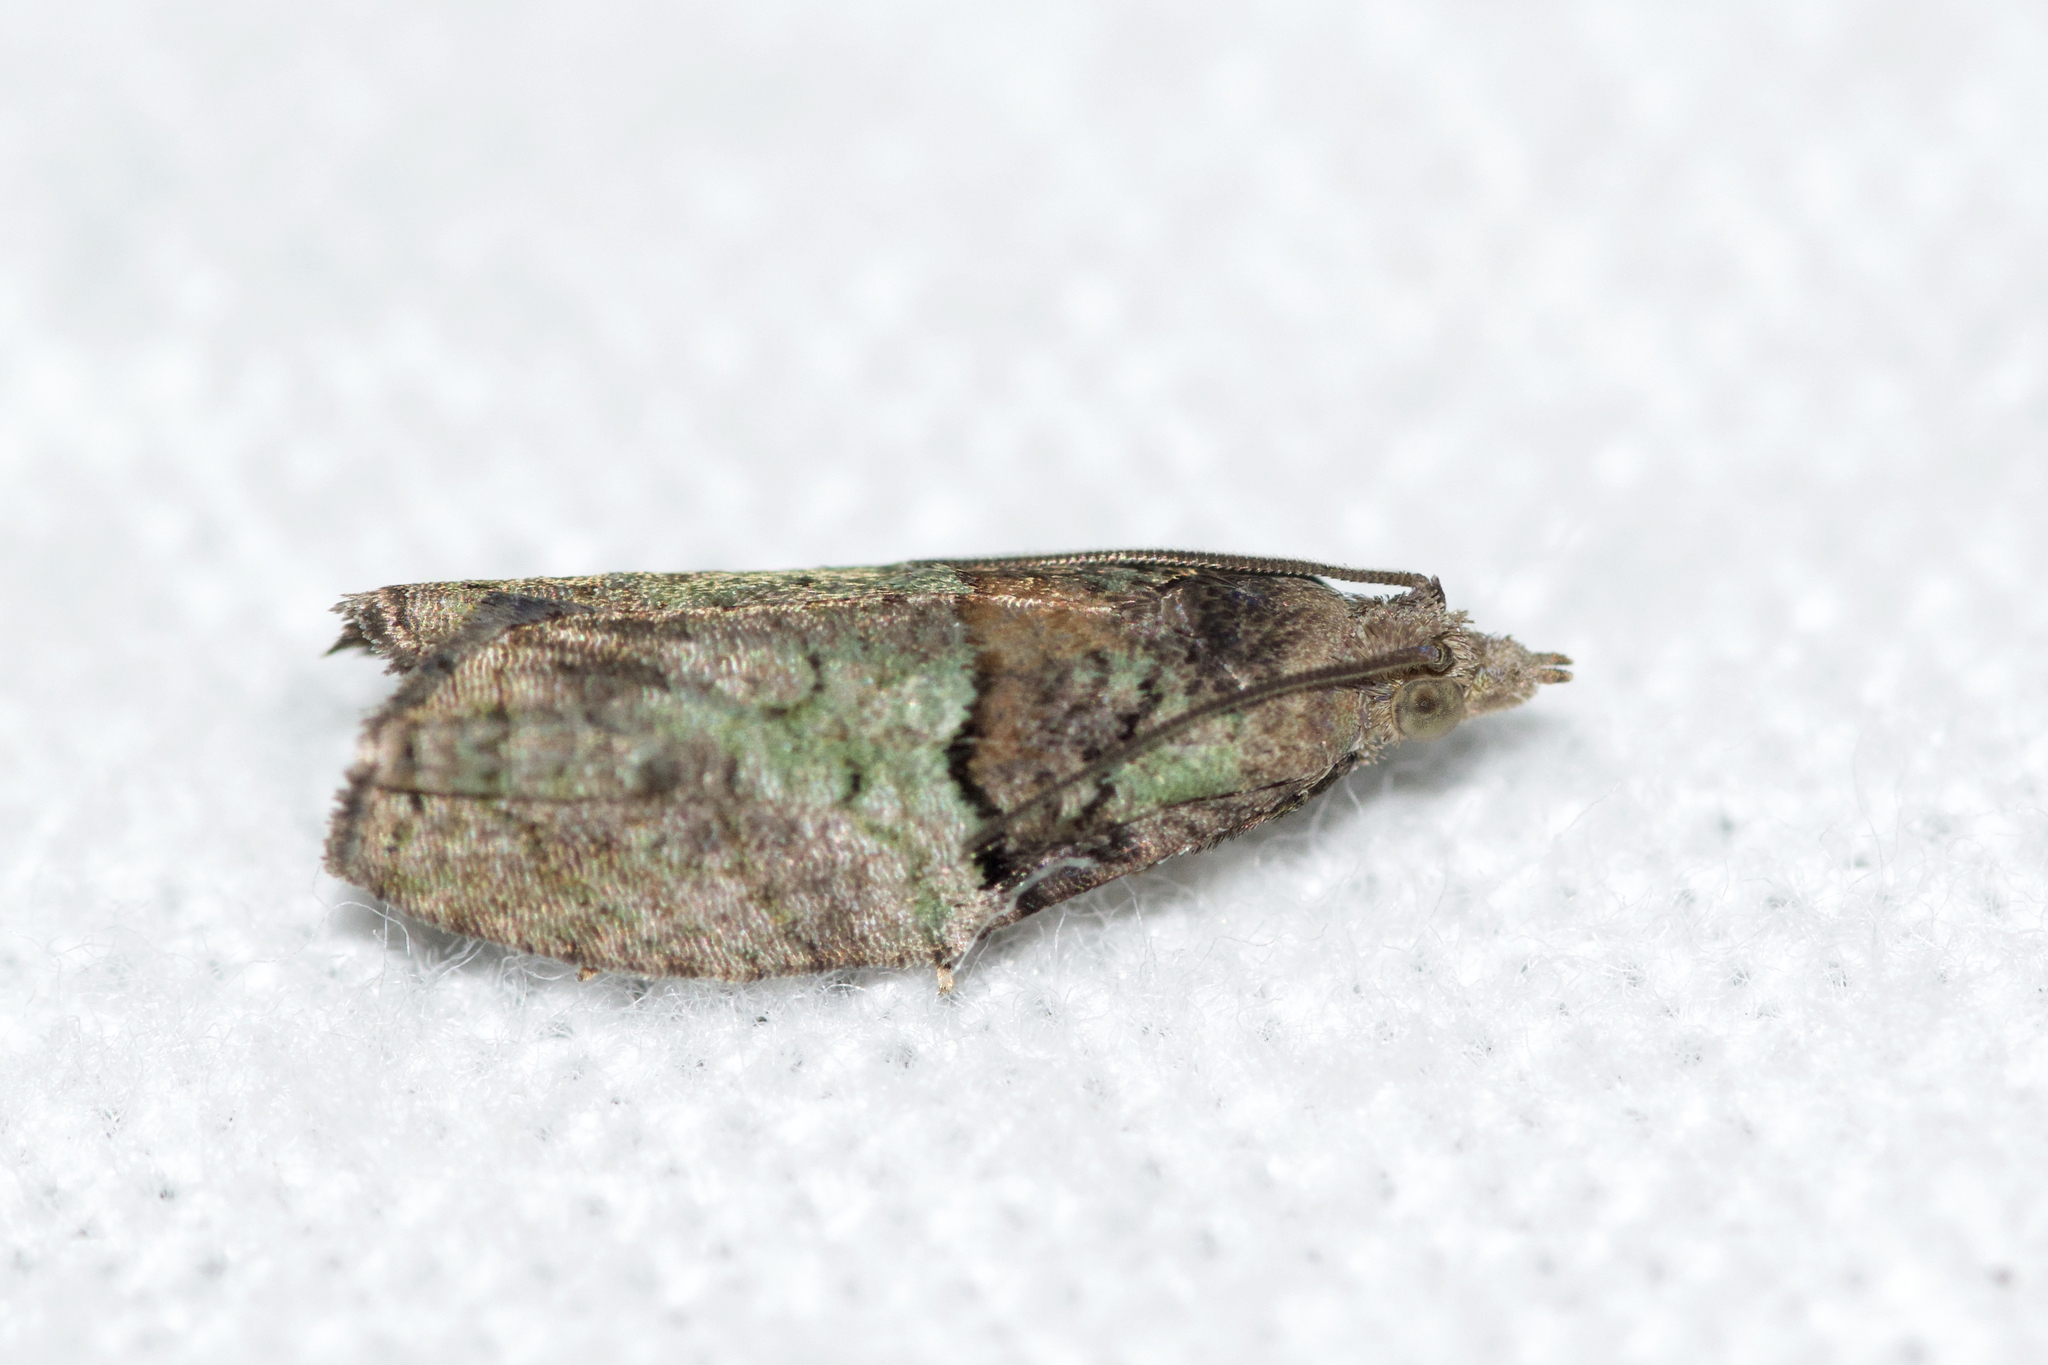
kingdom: Animalia
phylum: Arthropoda
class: Insecta
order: Lepidoptera
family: Tortricidae
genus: Epinotia
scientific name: Epinotia medioviridana
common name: Raspberry leaf-roller moth
